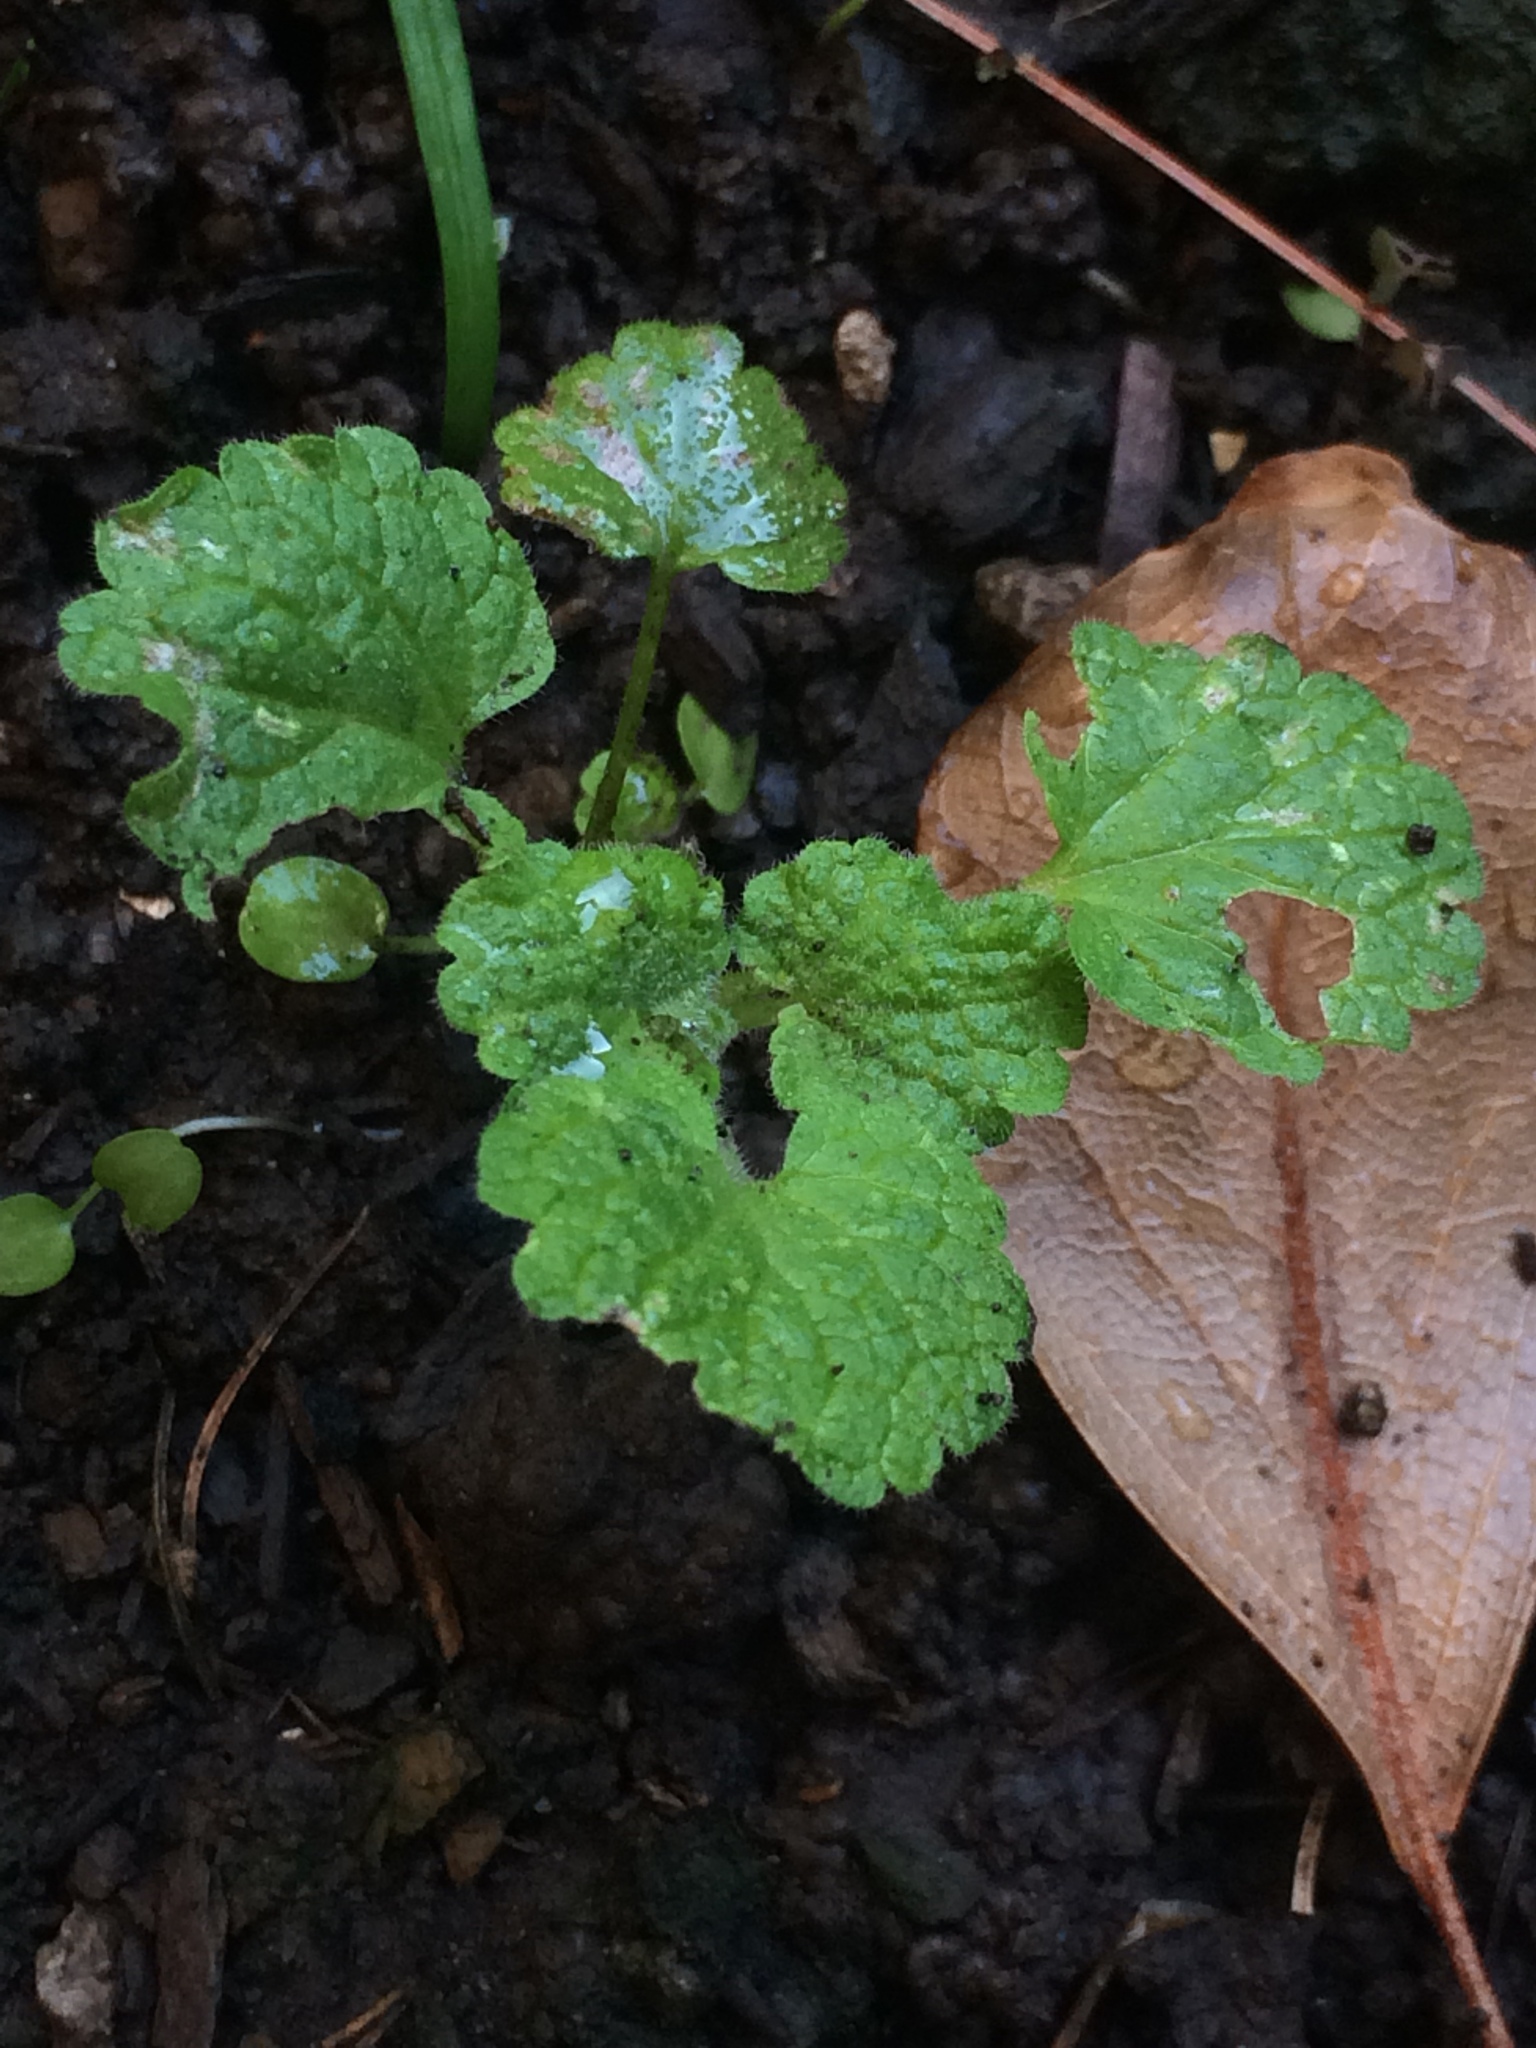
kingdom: Plantae
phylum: Tracheophyta
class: Magnoliopsida
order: Lamiales
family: Lamiaceae
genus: Lamium
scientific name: Lamium purpureum
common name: Red dead-nettle
